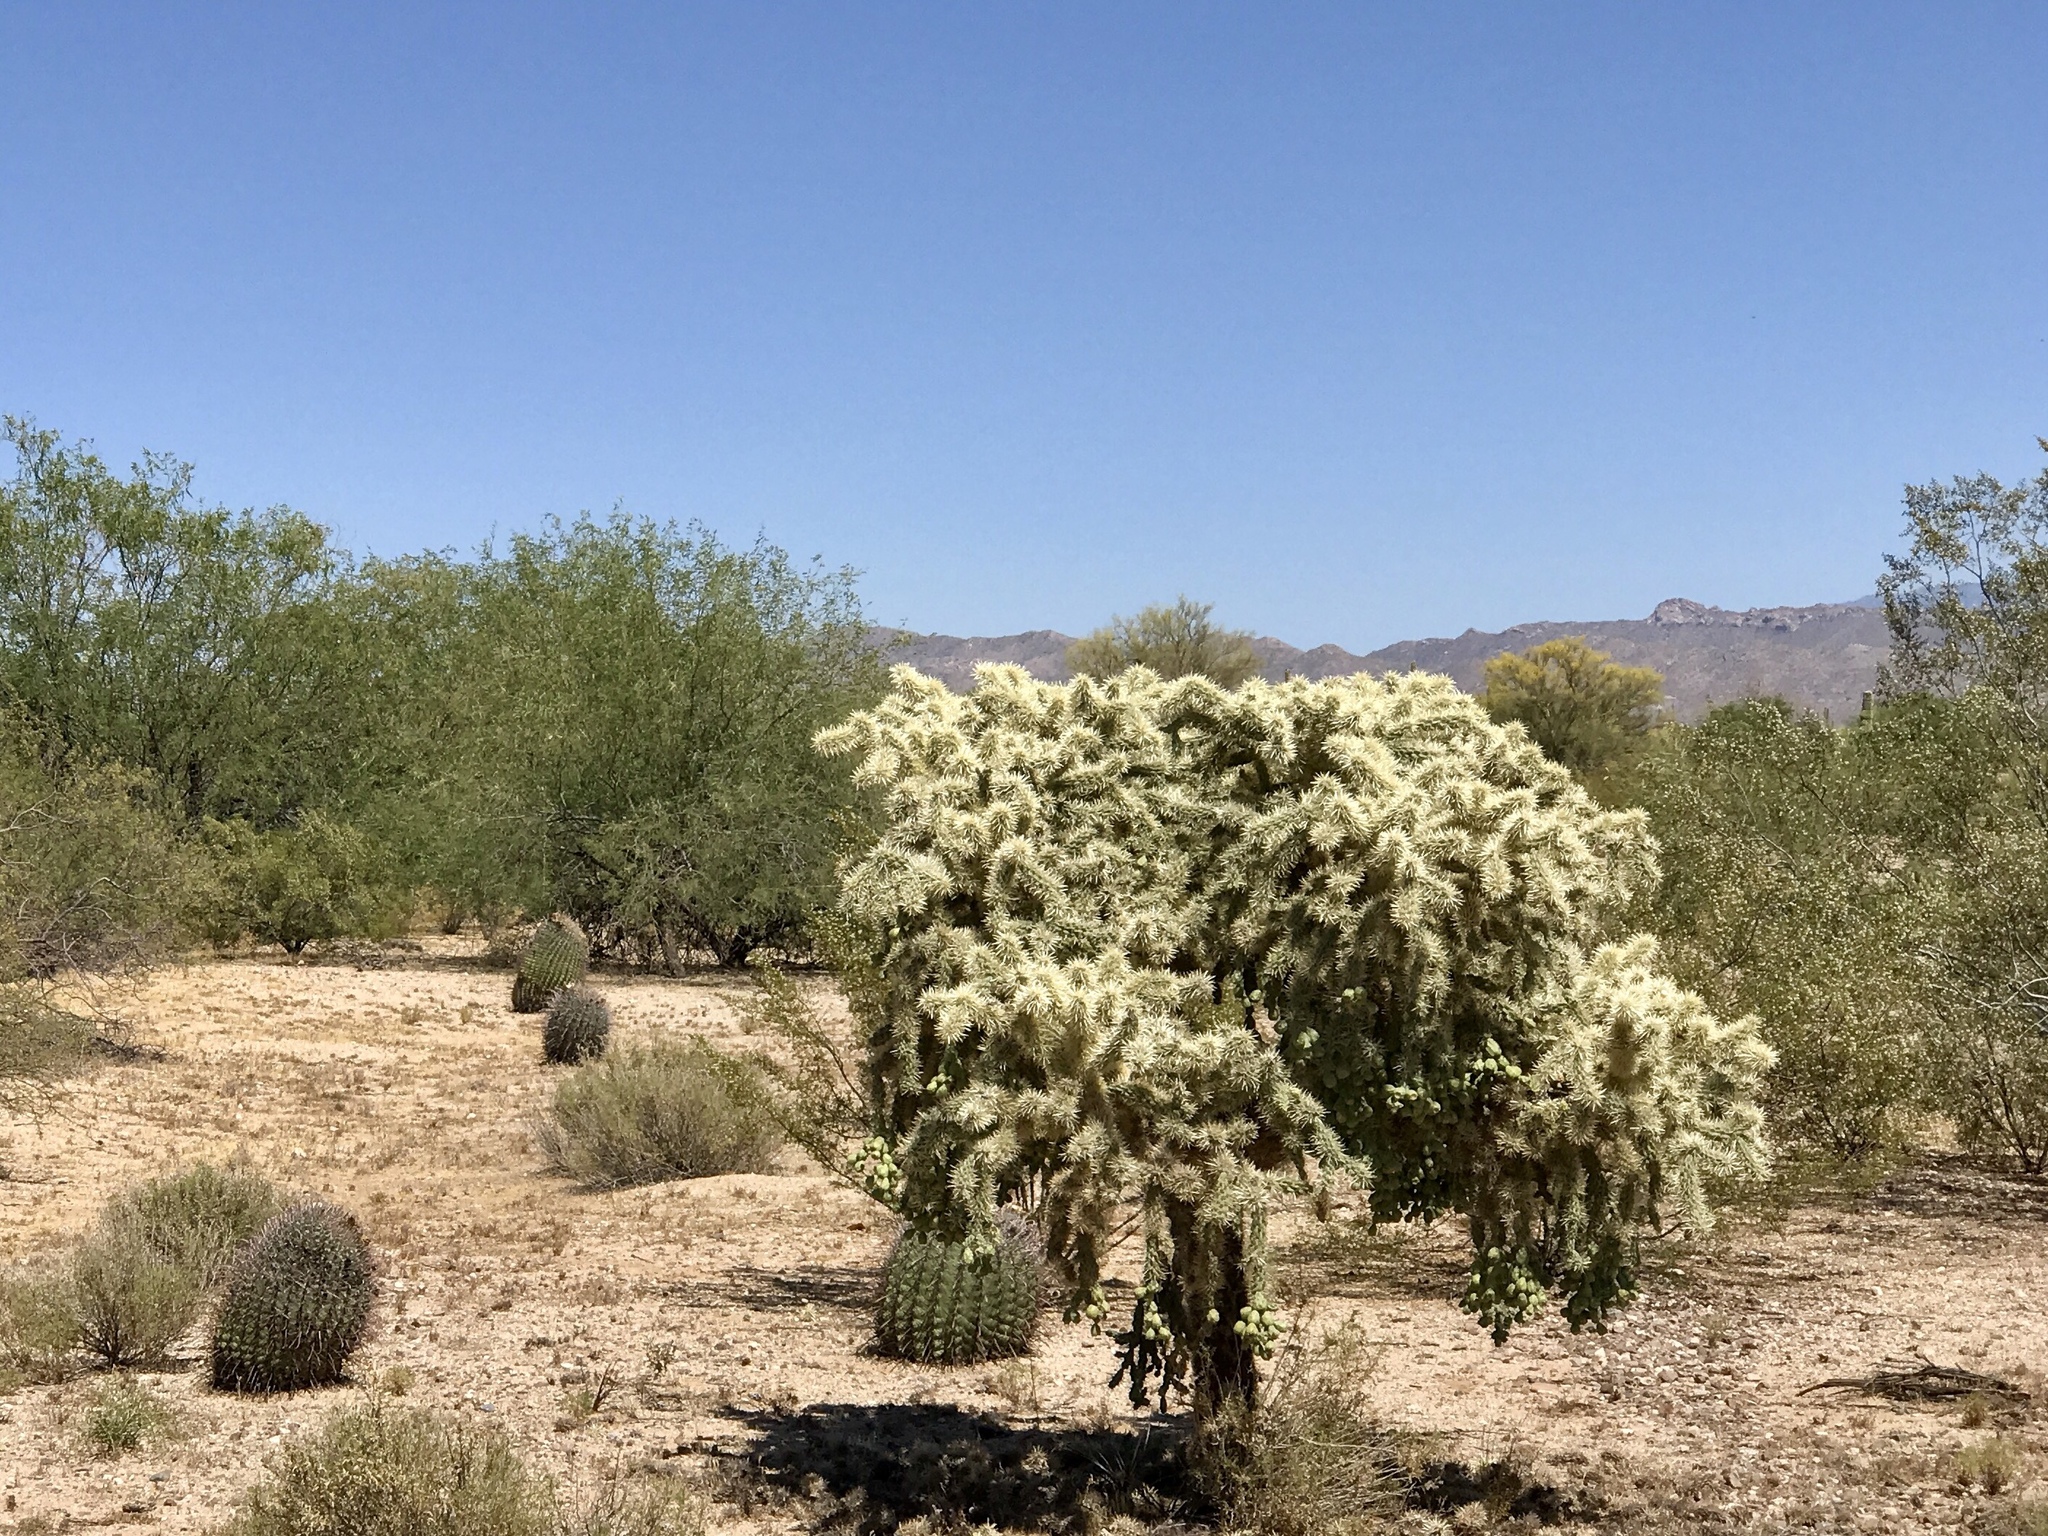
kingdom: Plantae
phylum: Tracheophyta
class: Magnoliopsida
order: Caryophyllales
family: Cactaceae
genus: Cylindropuntia
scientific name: Cylindropuntia fulgida
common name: Jumping cholla
